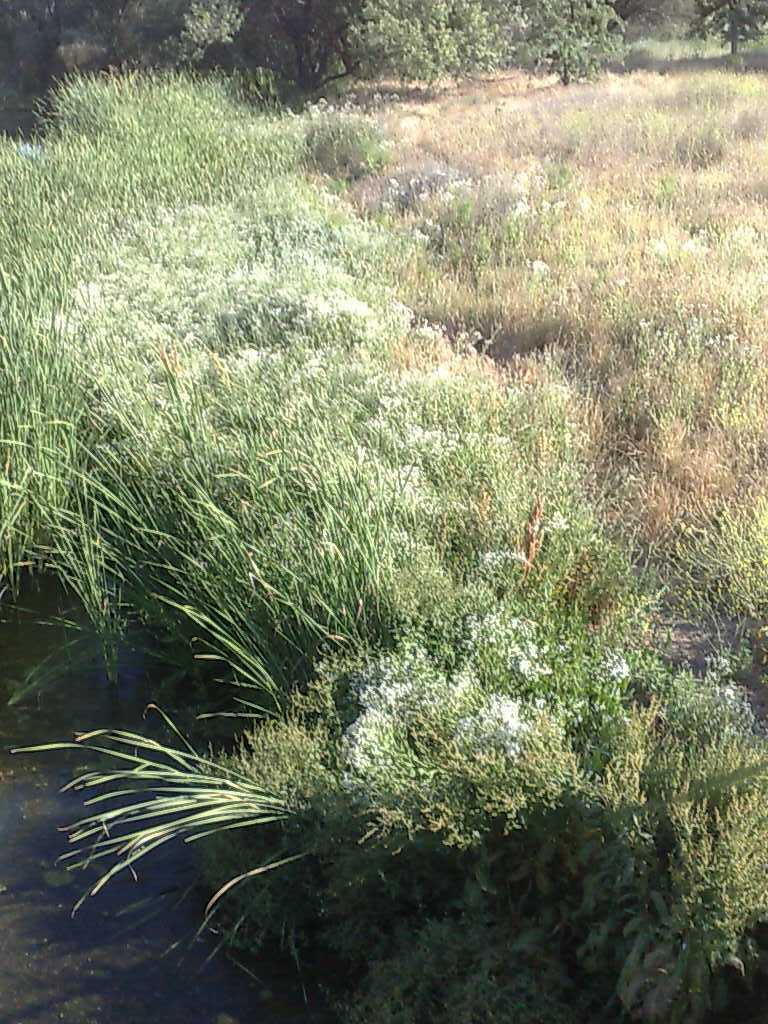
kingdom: Plantae
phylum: Tracheophyta
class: Magnoliopsida
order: Brassicales
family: Brassicaceae
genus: Lepidium
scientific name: Lepidium latifolium
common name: Dittander
